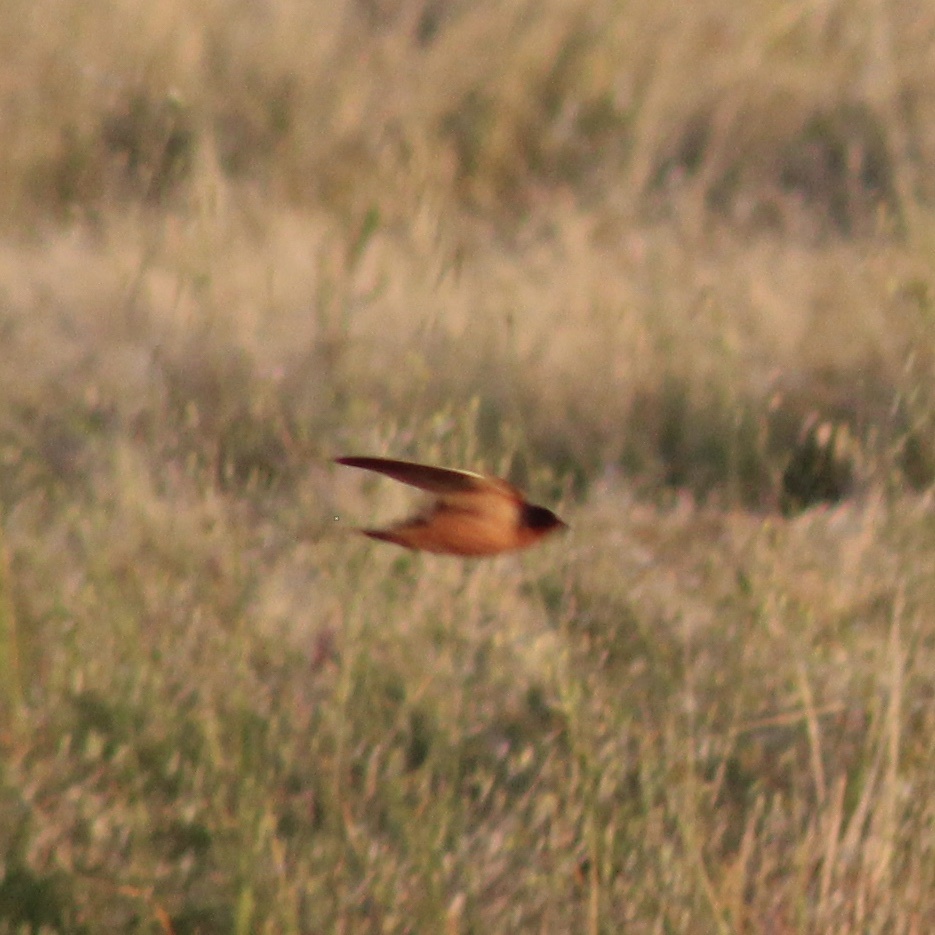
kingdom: Animalia
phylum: Chordata
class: Aves
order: Passeriformes
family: Hirundinidae
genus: Hirundo
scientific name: Hirundo rustica
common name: Barn swallow
